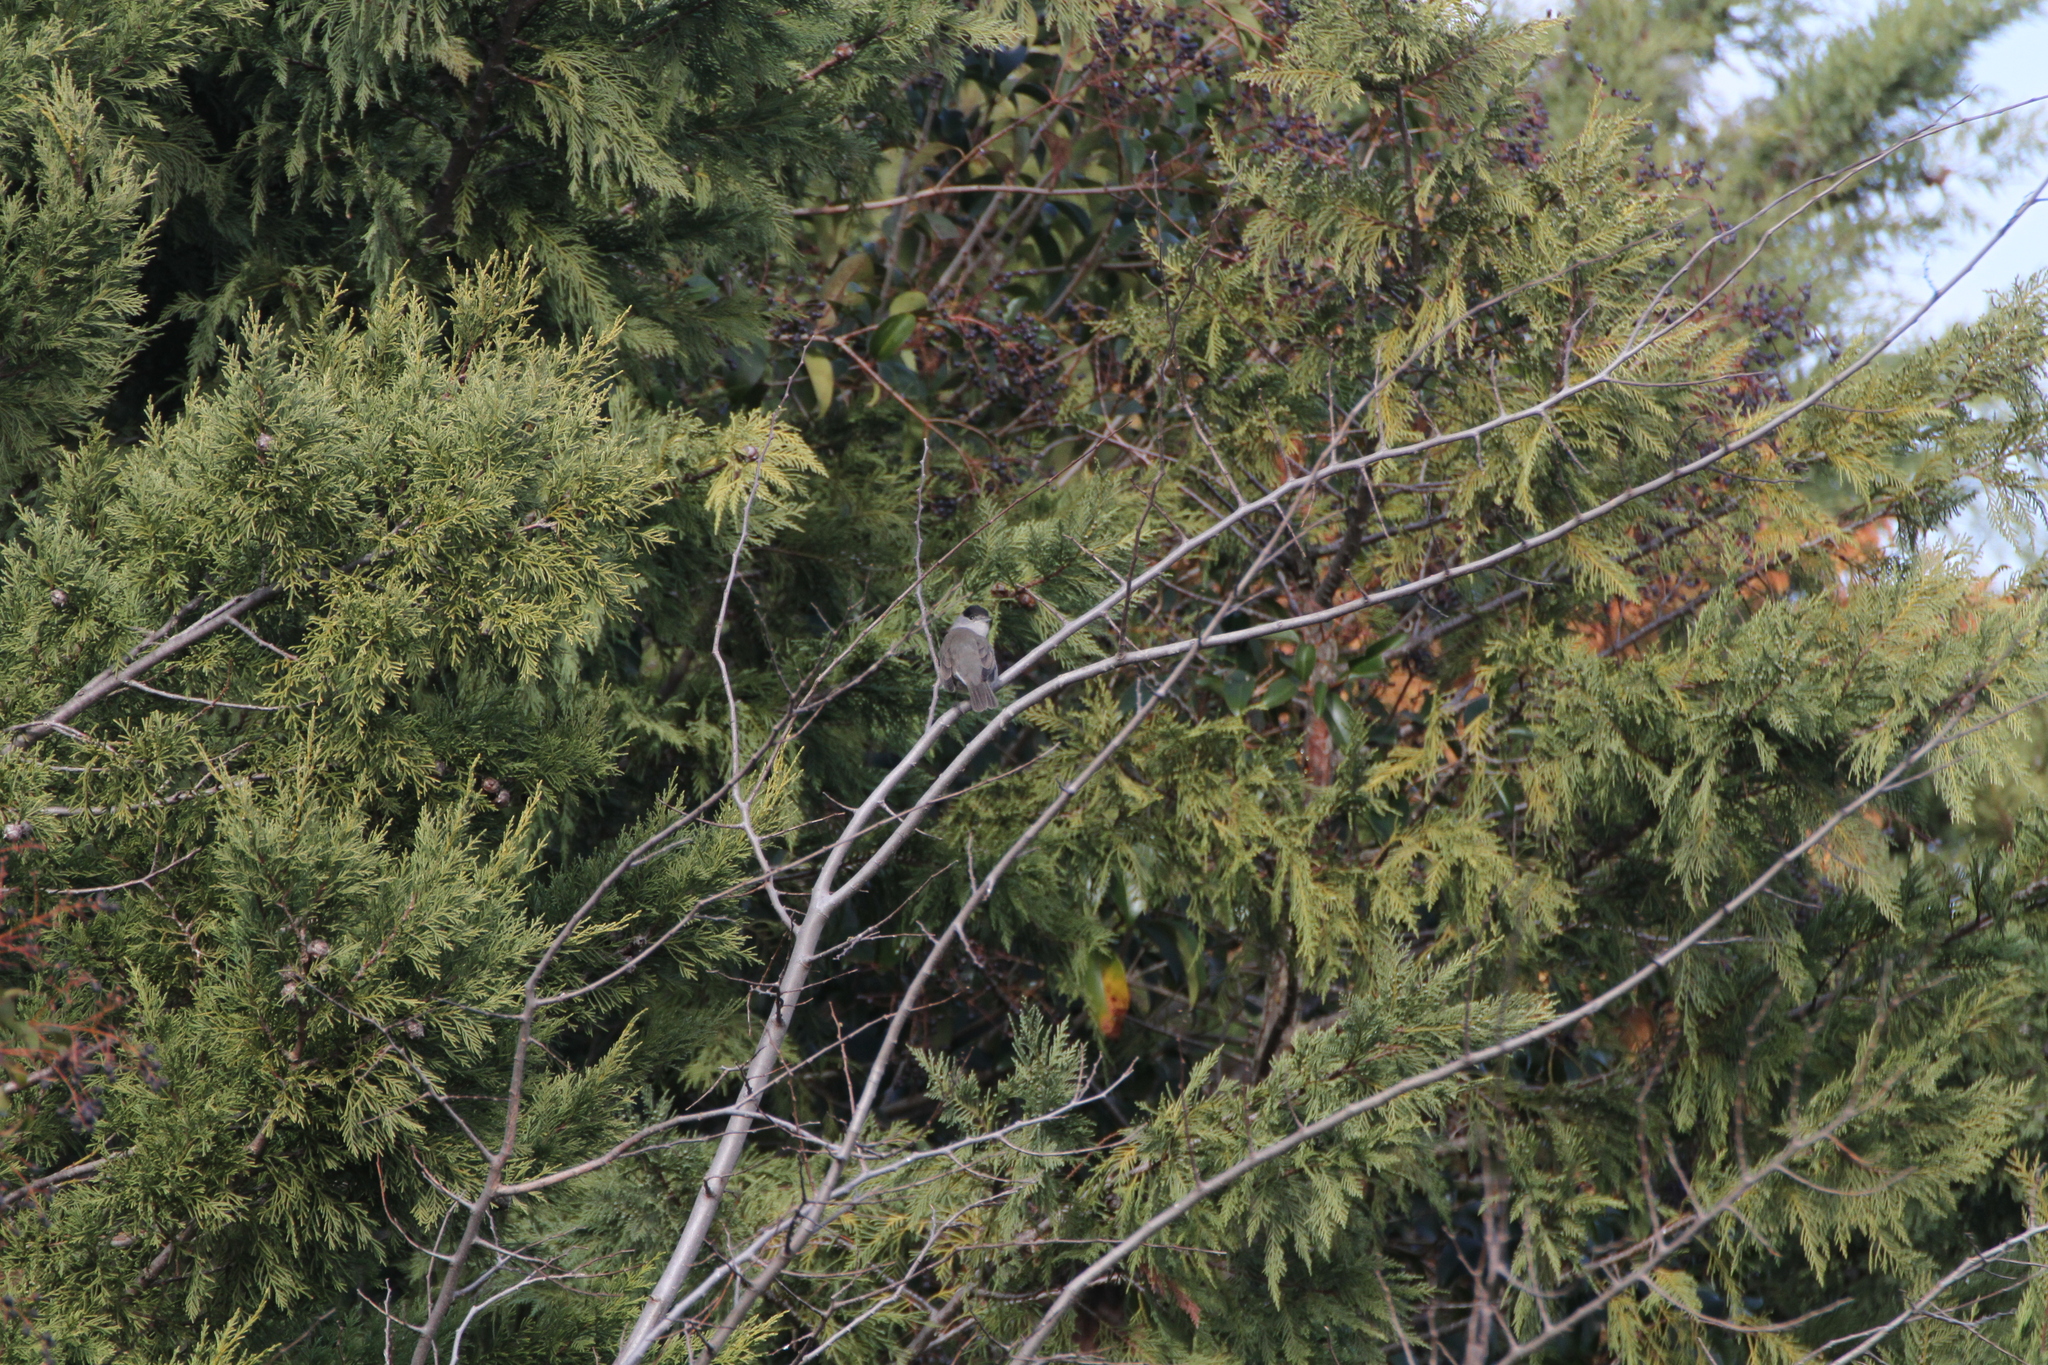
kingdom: Animalia
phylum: Chordata
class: Aves
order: Passeriformes
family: Sylviidae
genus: Sylvia
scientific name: Sylvia atricapilla
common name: Eurasian blackcap
